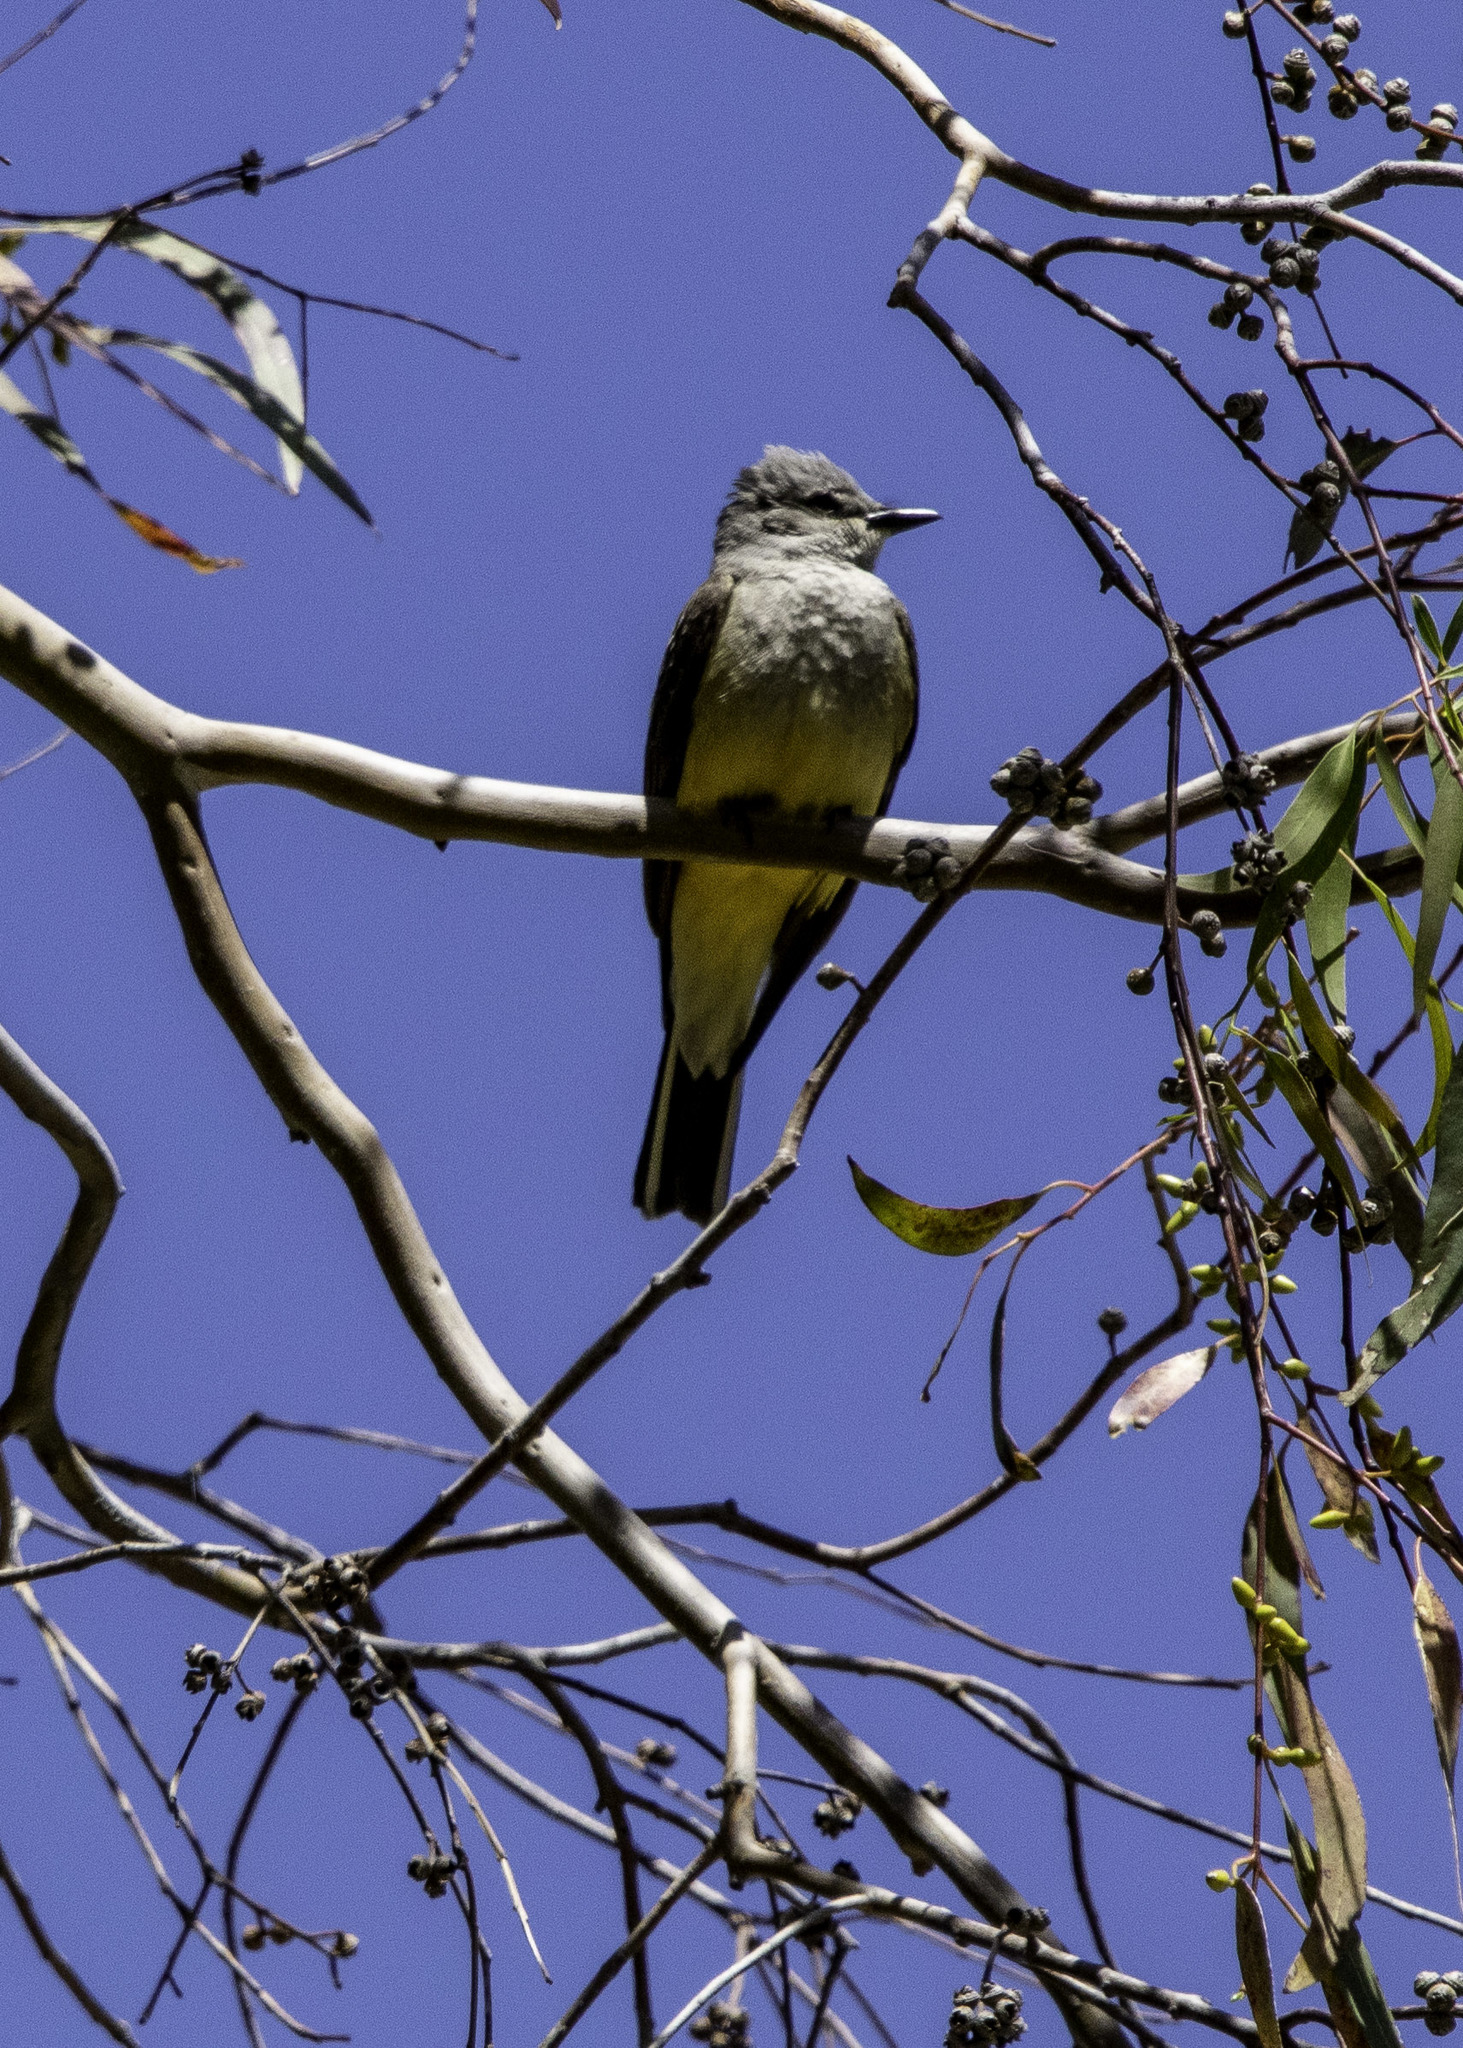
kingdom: Animalia
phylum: Chordata
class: Aves
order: Passeriformes
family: Tyrannidae
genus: Tyrannus
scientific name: Tyrannus verticalis
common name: Western kingbird
